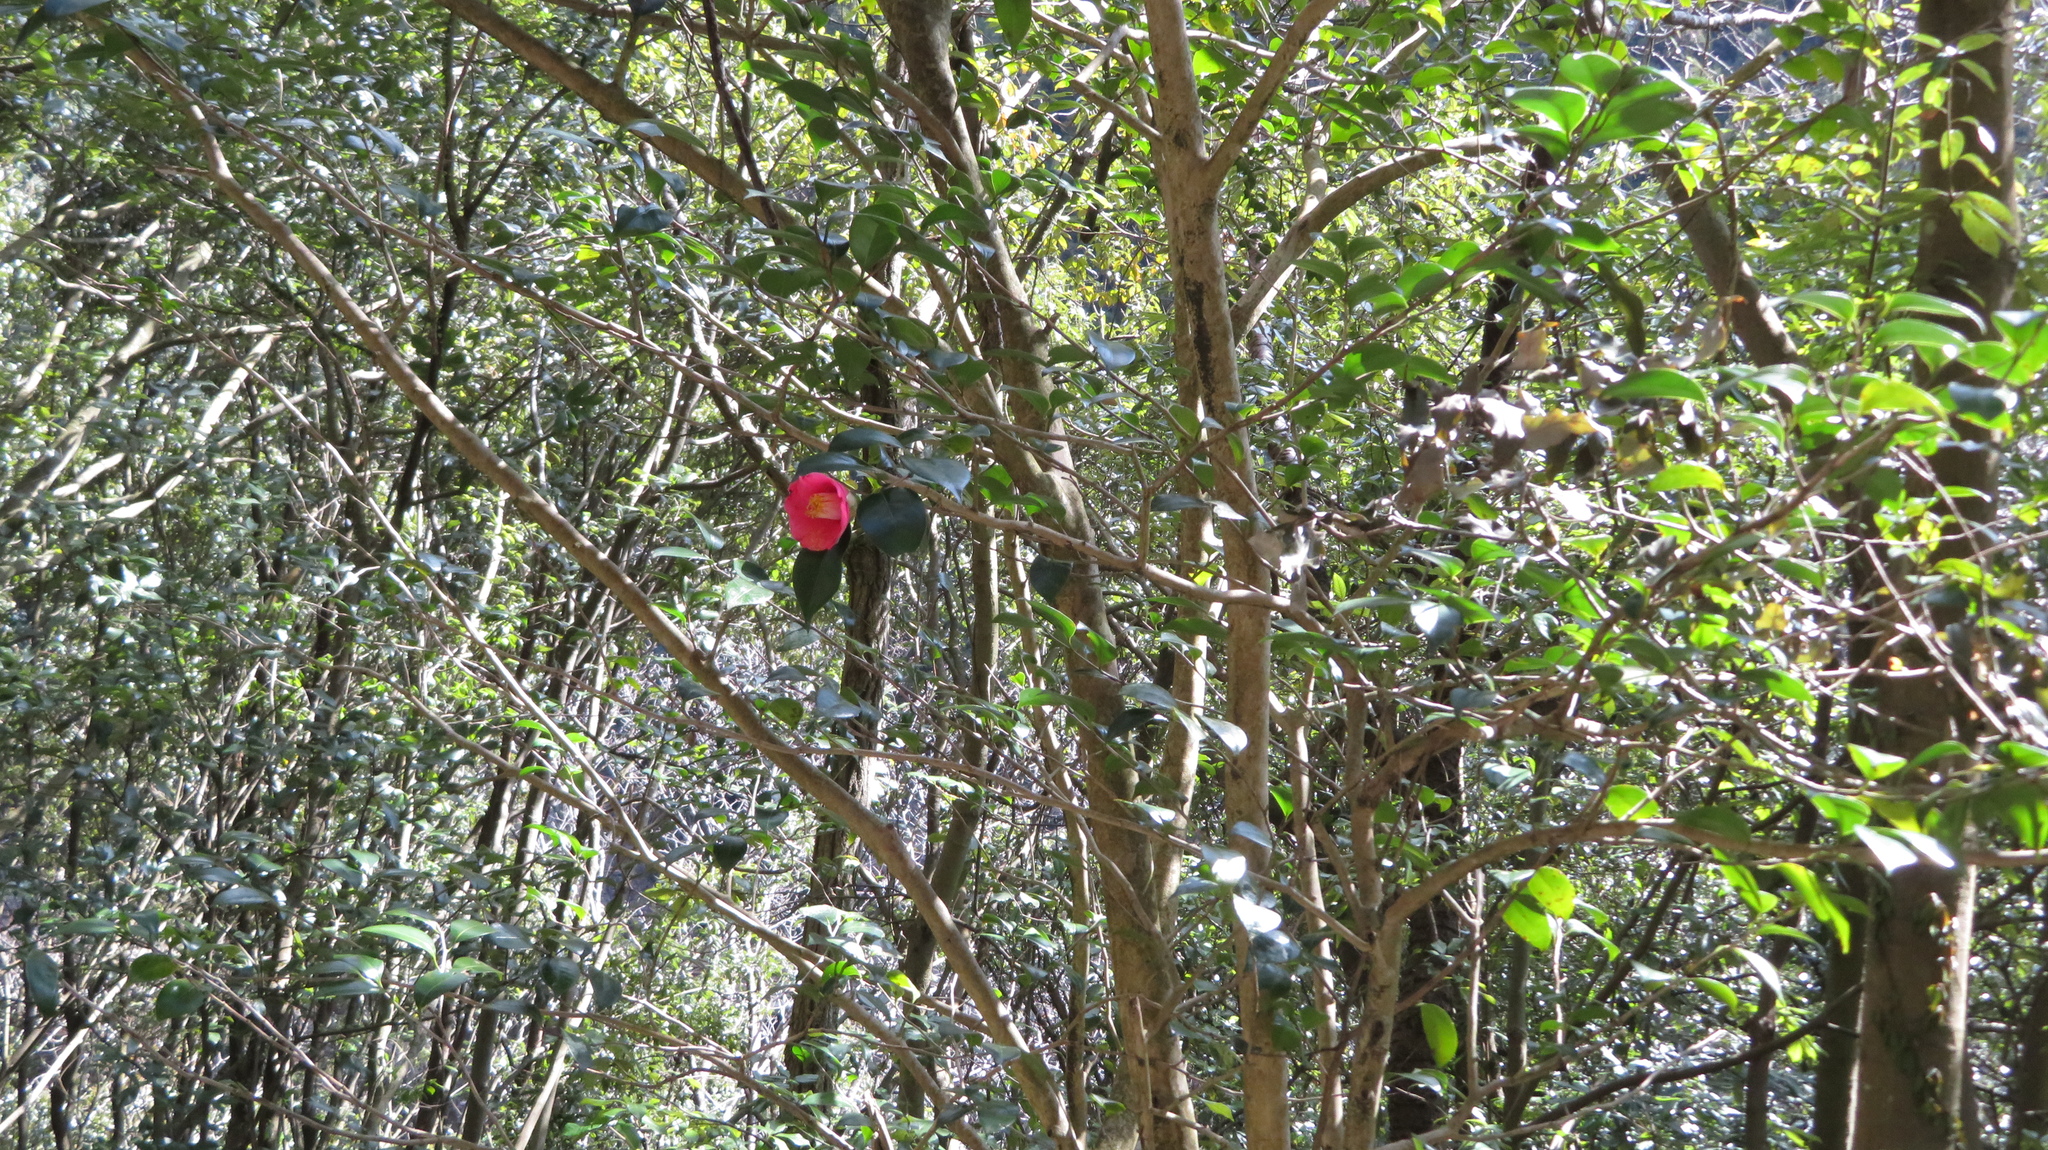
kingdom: Plantae
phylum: Tracheophyta
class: Magnoliopsida
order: Ericales
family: Theaceae
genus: Camellia
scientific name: Camellia japonica
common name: Camellia
